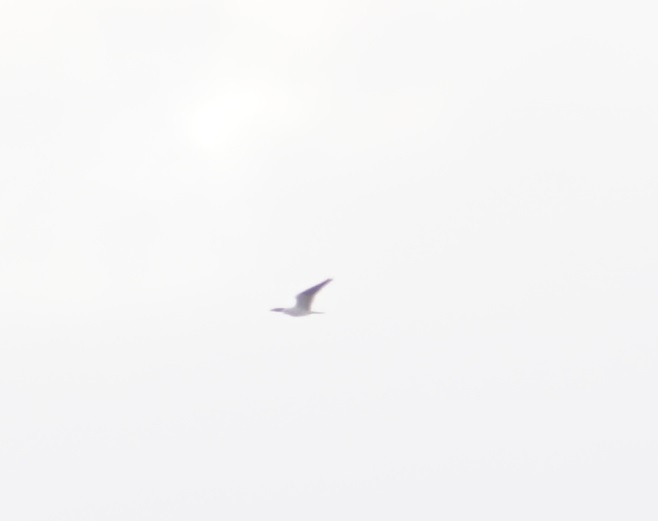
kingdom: Animalia
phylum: Chordata
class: Aves
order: Accipitriformes
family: Accipitridae
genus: Elanus
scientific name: Elanus axillaris
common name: Black-shouldered kite
